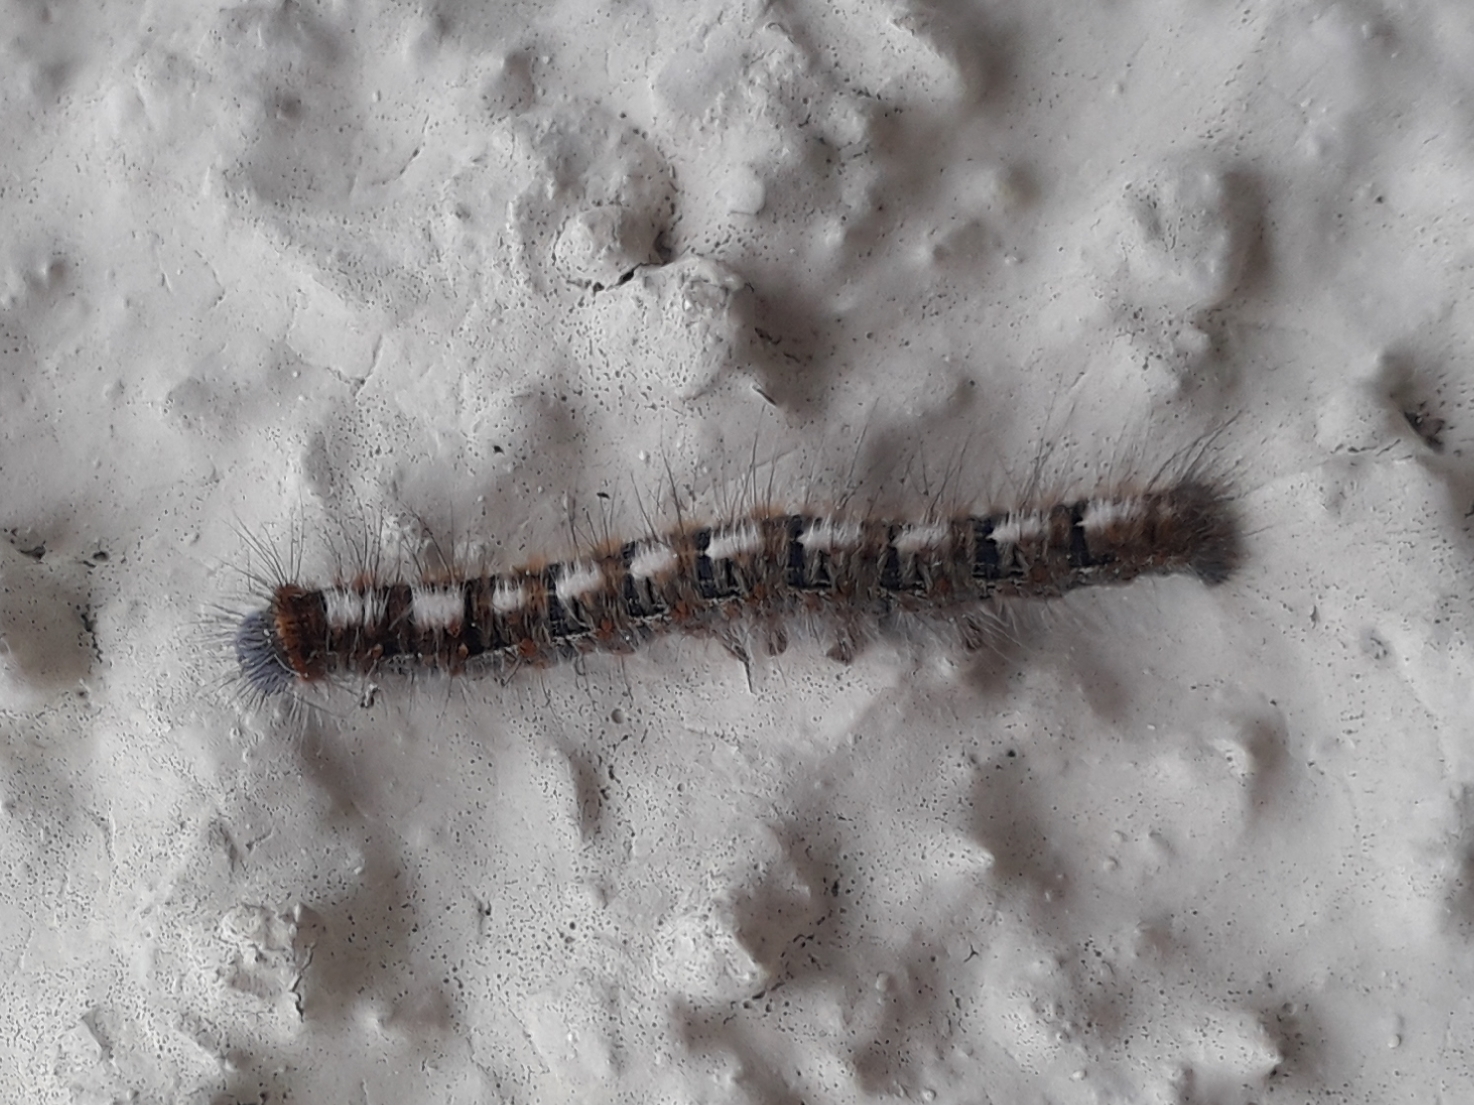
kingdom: Animalia
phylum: Arthropoda
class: Insecta
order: Lepidoptera
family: Lasiocampidae
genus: Lasiocampa
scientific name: Lasiocampa quercus
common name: Oak eggar
